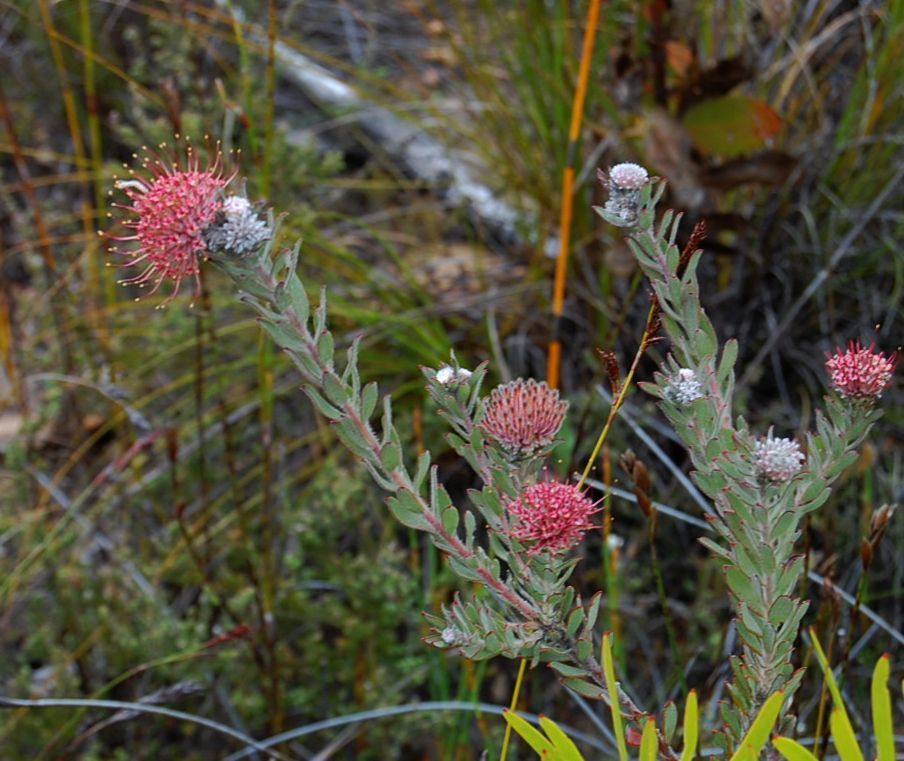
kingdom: Plantae
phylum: Tracheophyta
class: Magnoliopsida
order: Proteales
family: Proteaceae
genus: Leucospermum
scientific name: Leucospermum calligerum
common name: Arid pincushion
